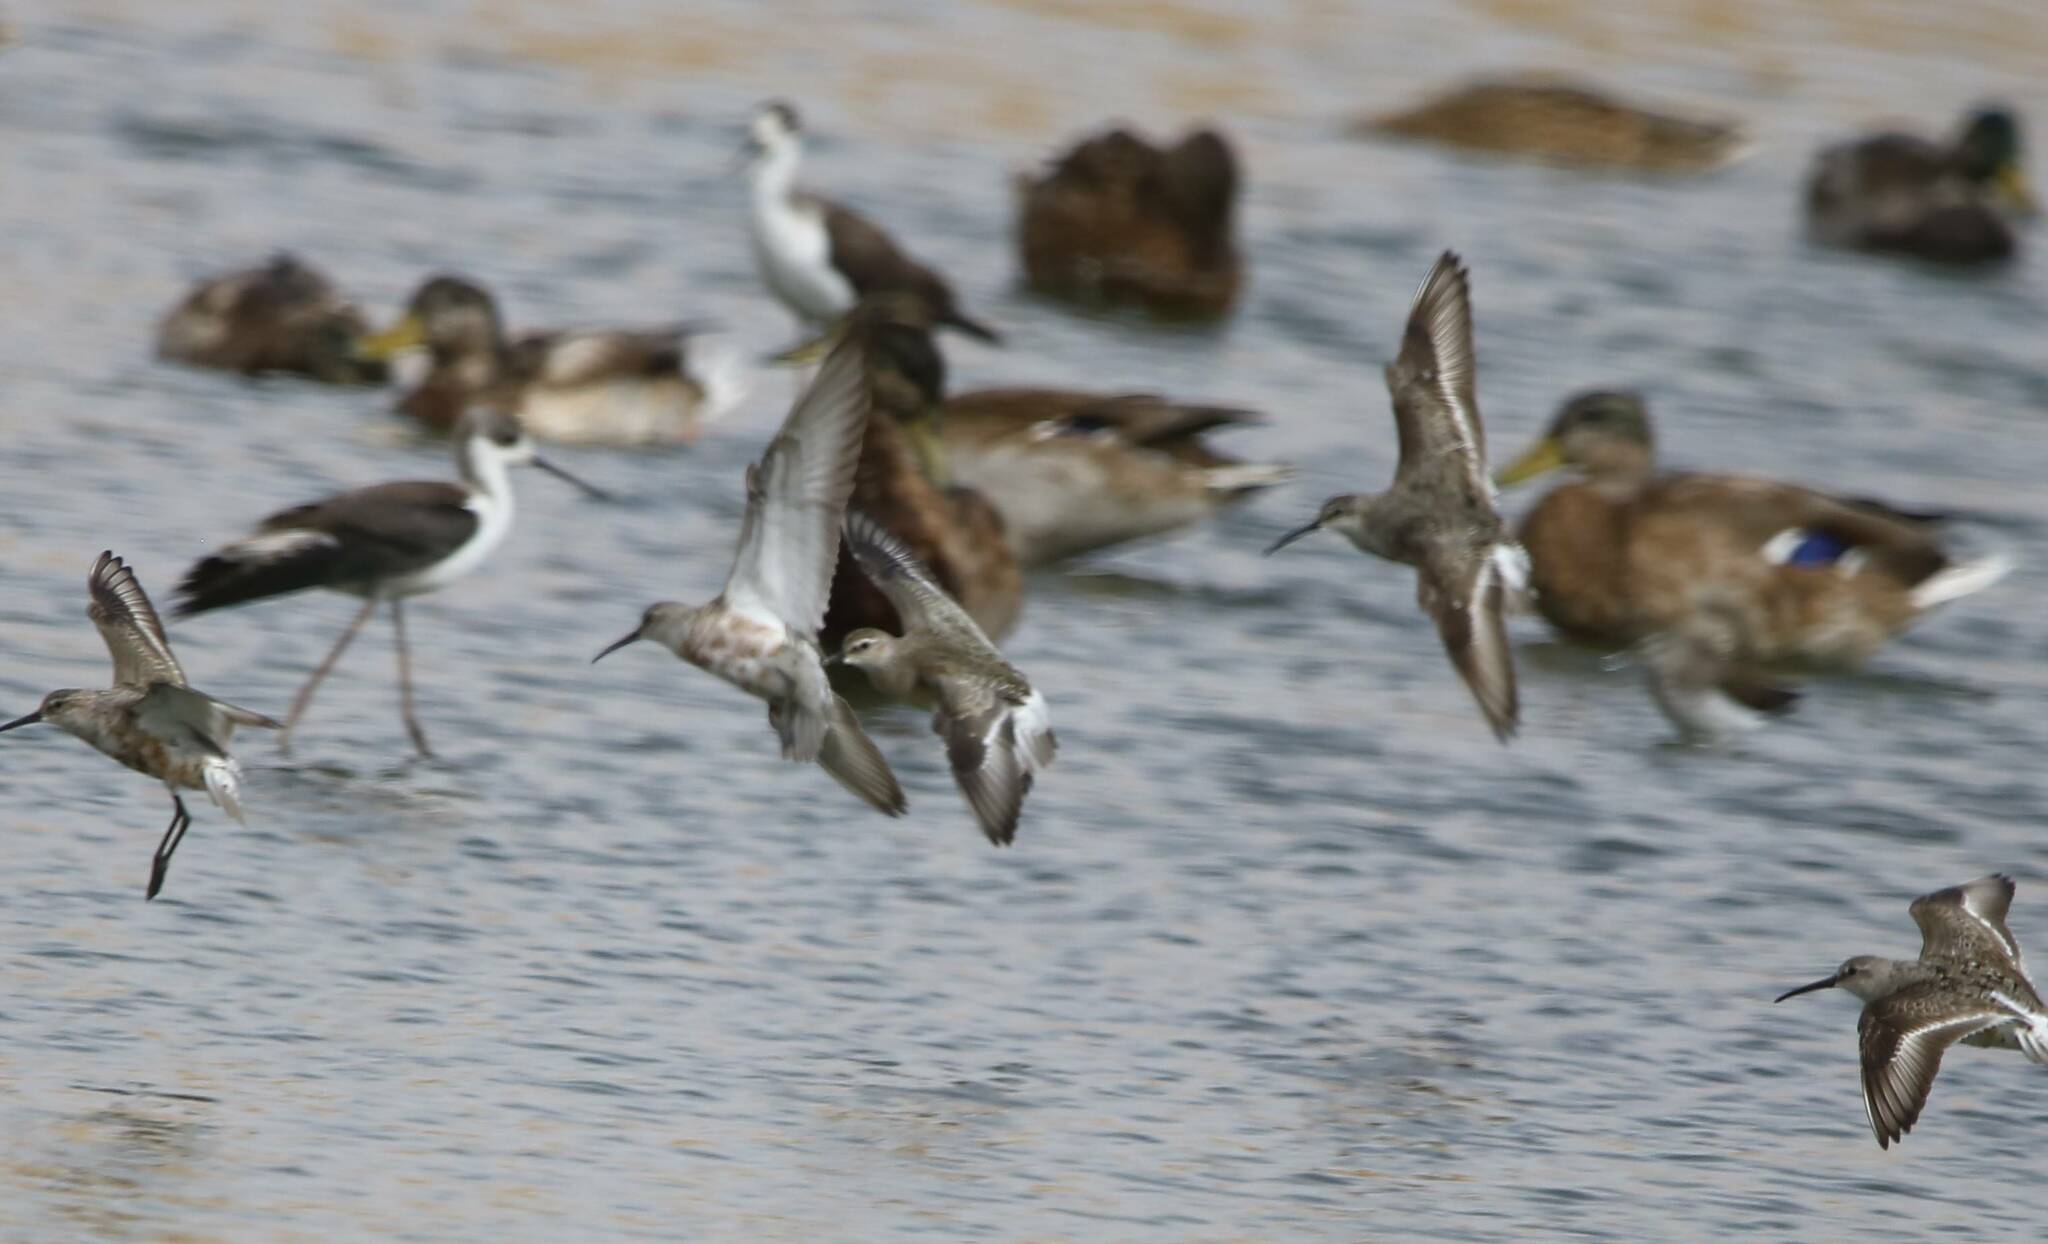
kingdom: Animalia
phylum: Chordata
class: Aves
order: Charadriiformes
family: Scolopacidae
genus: Calidris
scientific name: Calidris ferruginea
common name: Curlew sandpiper
